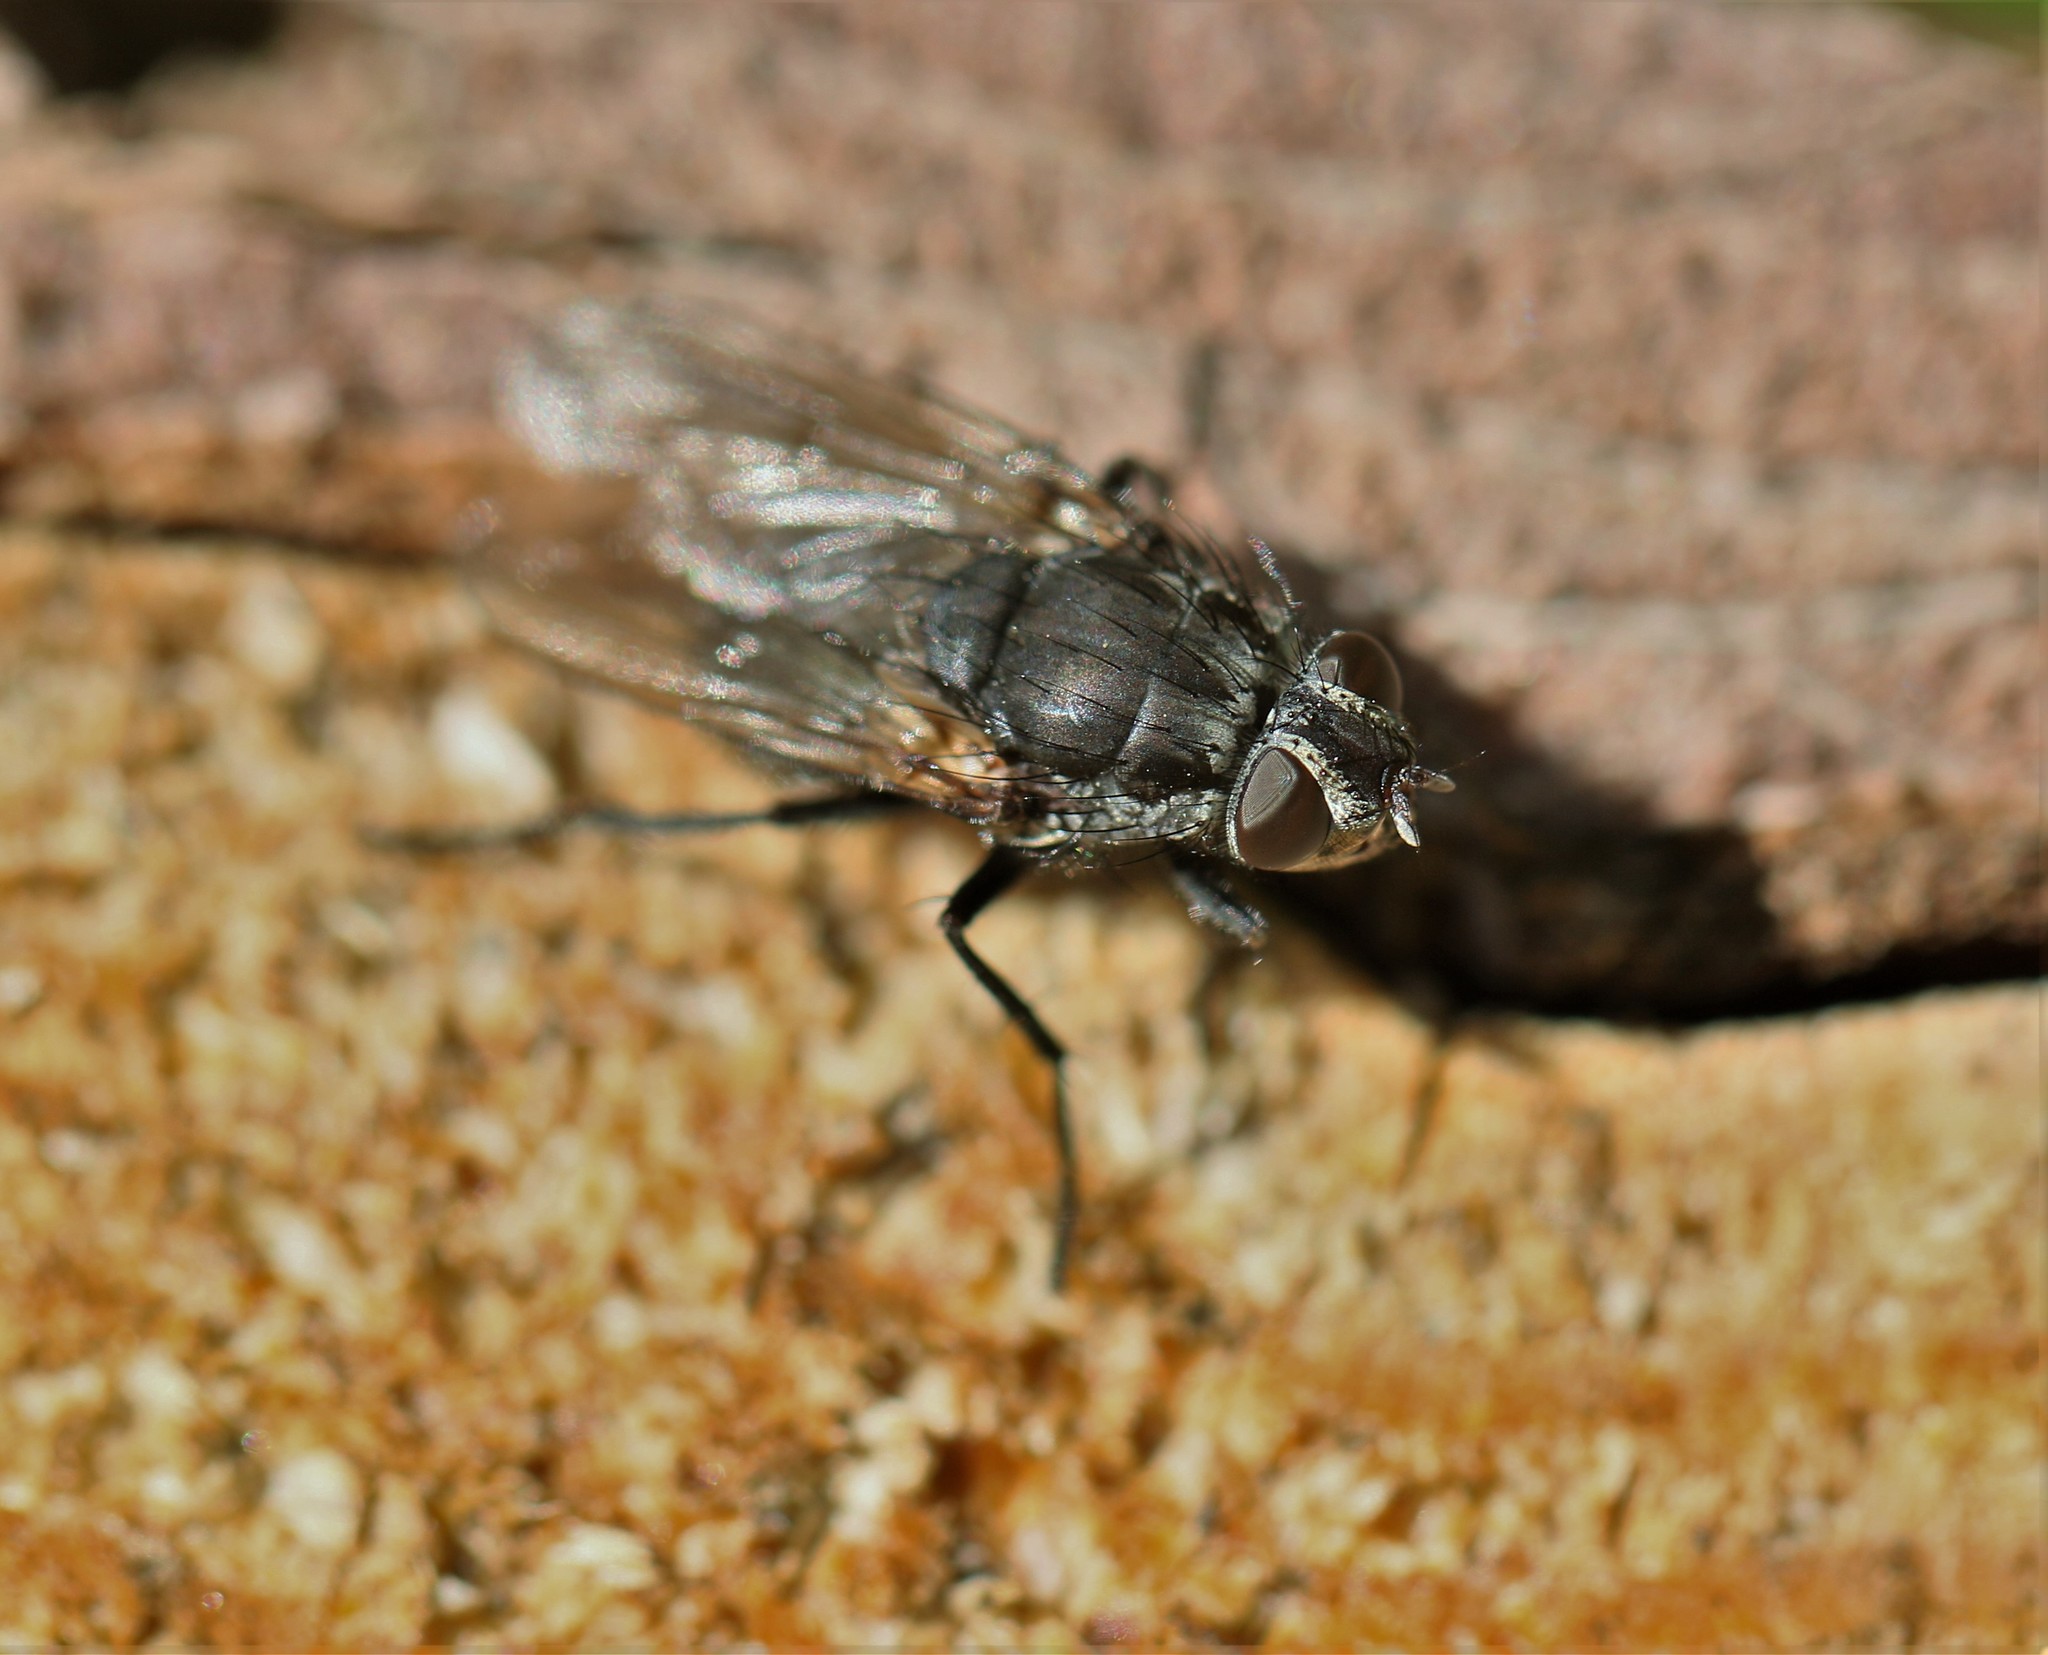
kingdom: Animalia
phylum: Arthropoda
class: Insecta
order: Diptera
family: Polleniidae
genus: Pollenia
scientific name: Pollenia vagabunda
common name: Vagabund cluster fly
